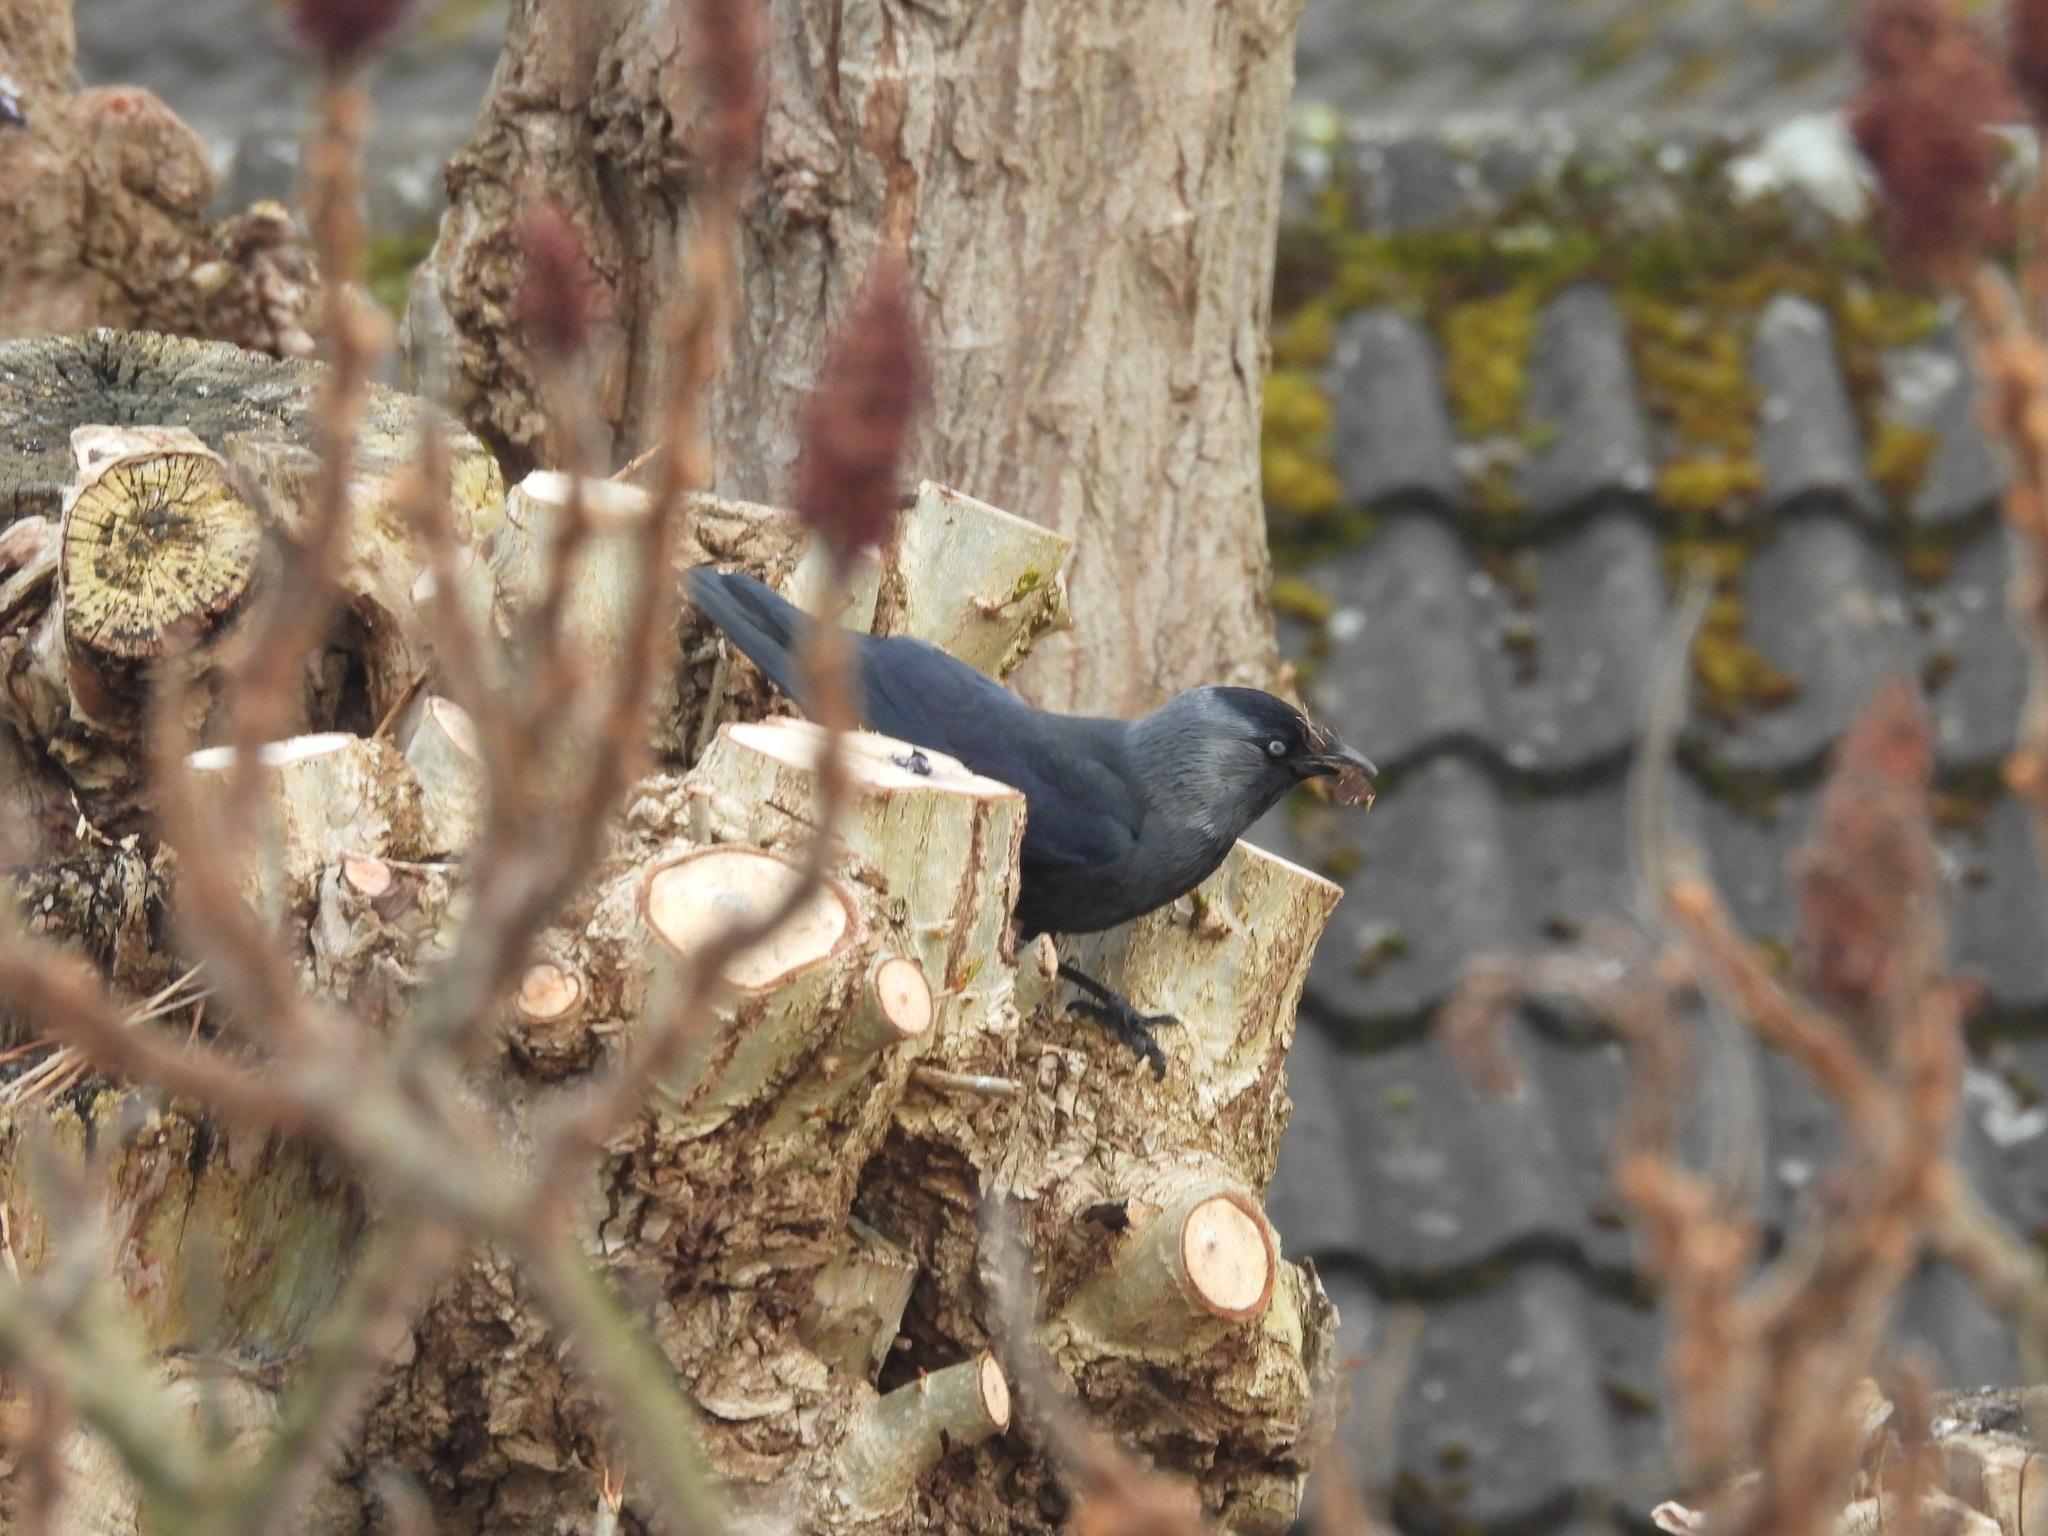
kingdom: Animalia
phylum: Chordata
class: Aves
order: Passeriformes
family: Corvidae
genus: Coloeus
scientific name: Coloeus monedula
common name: Western jackdaw
